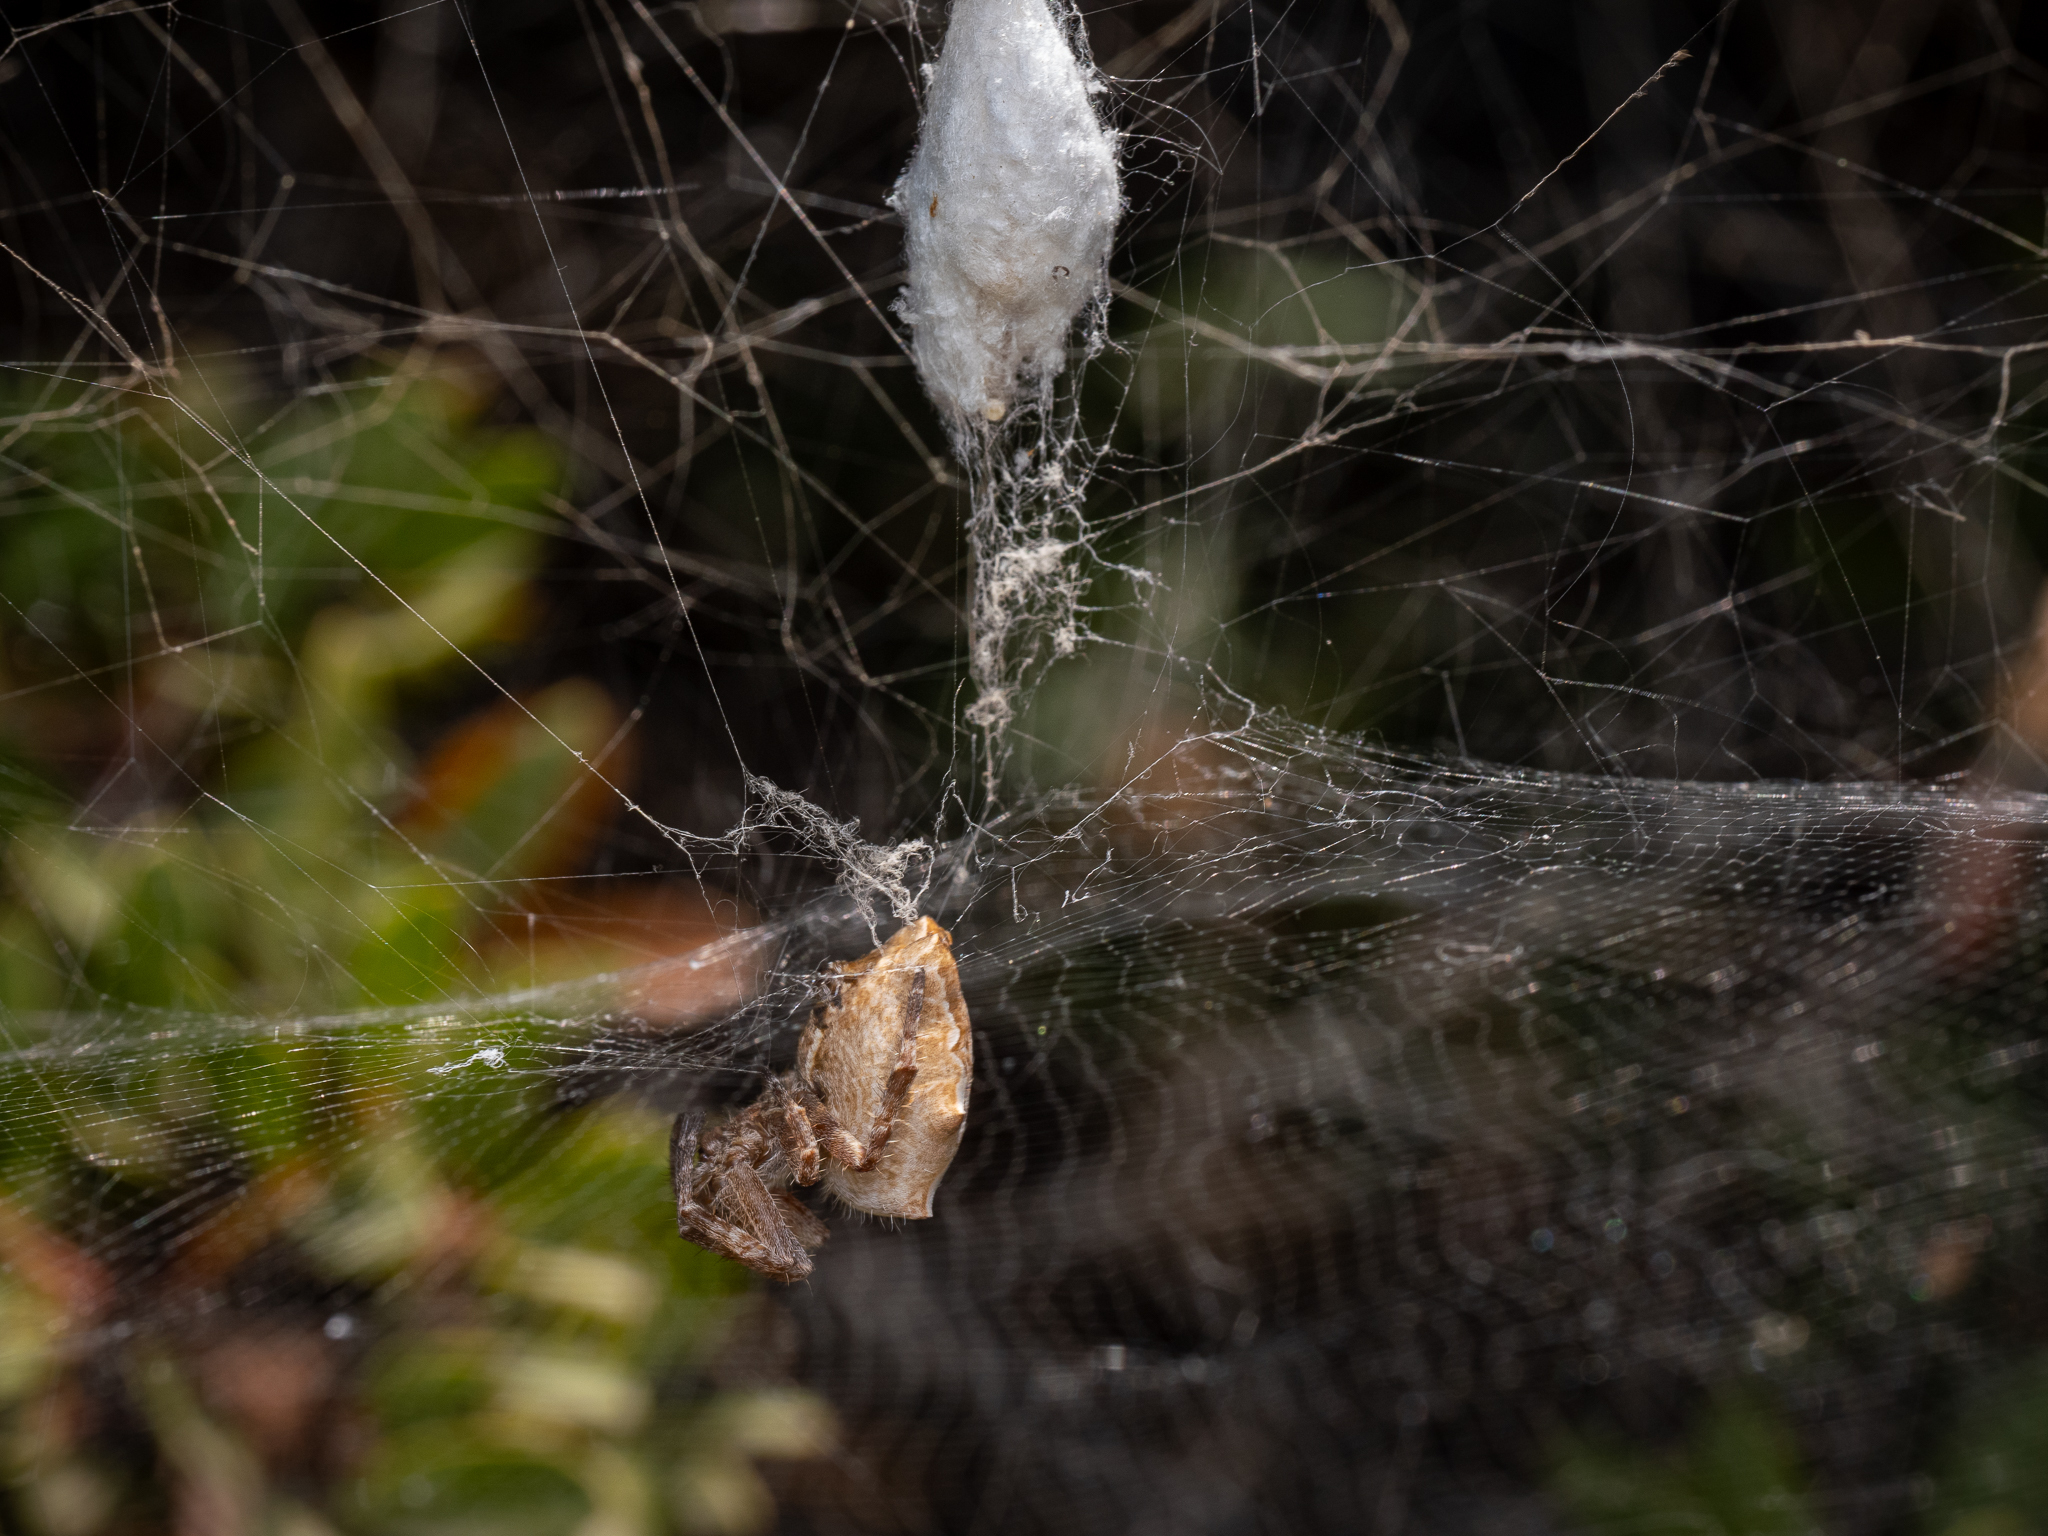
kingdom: Animalia
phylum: Arthropoda
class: Arachnida
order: Araneae
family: Araneidae
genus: Cyrtophora
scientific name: Cyrtophora citricola
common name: Orb weavers
